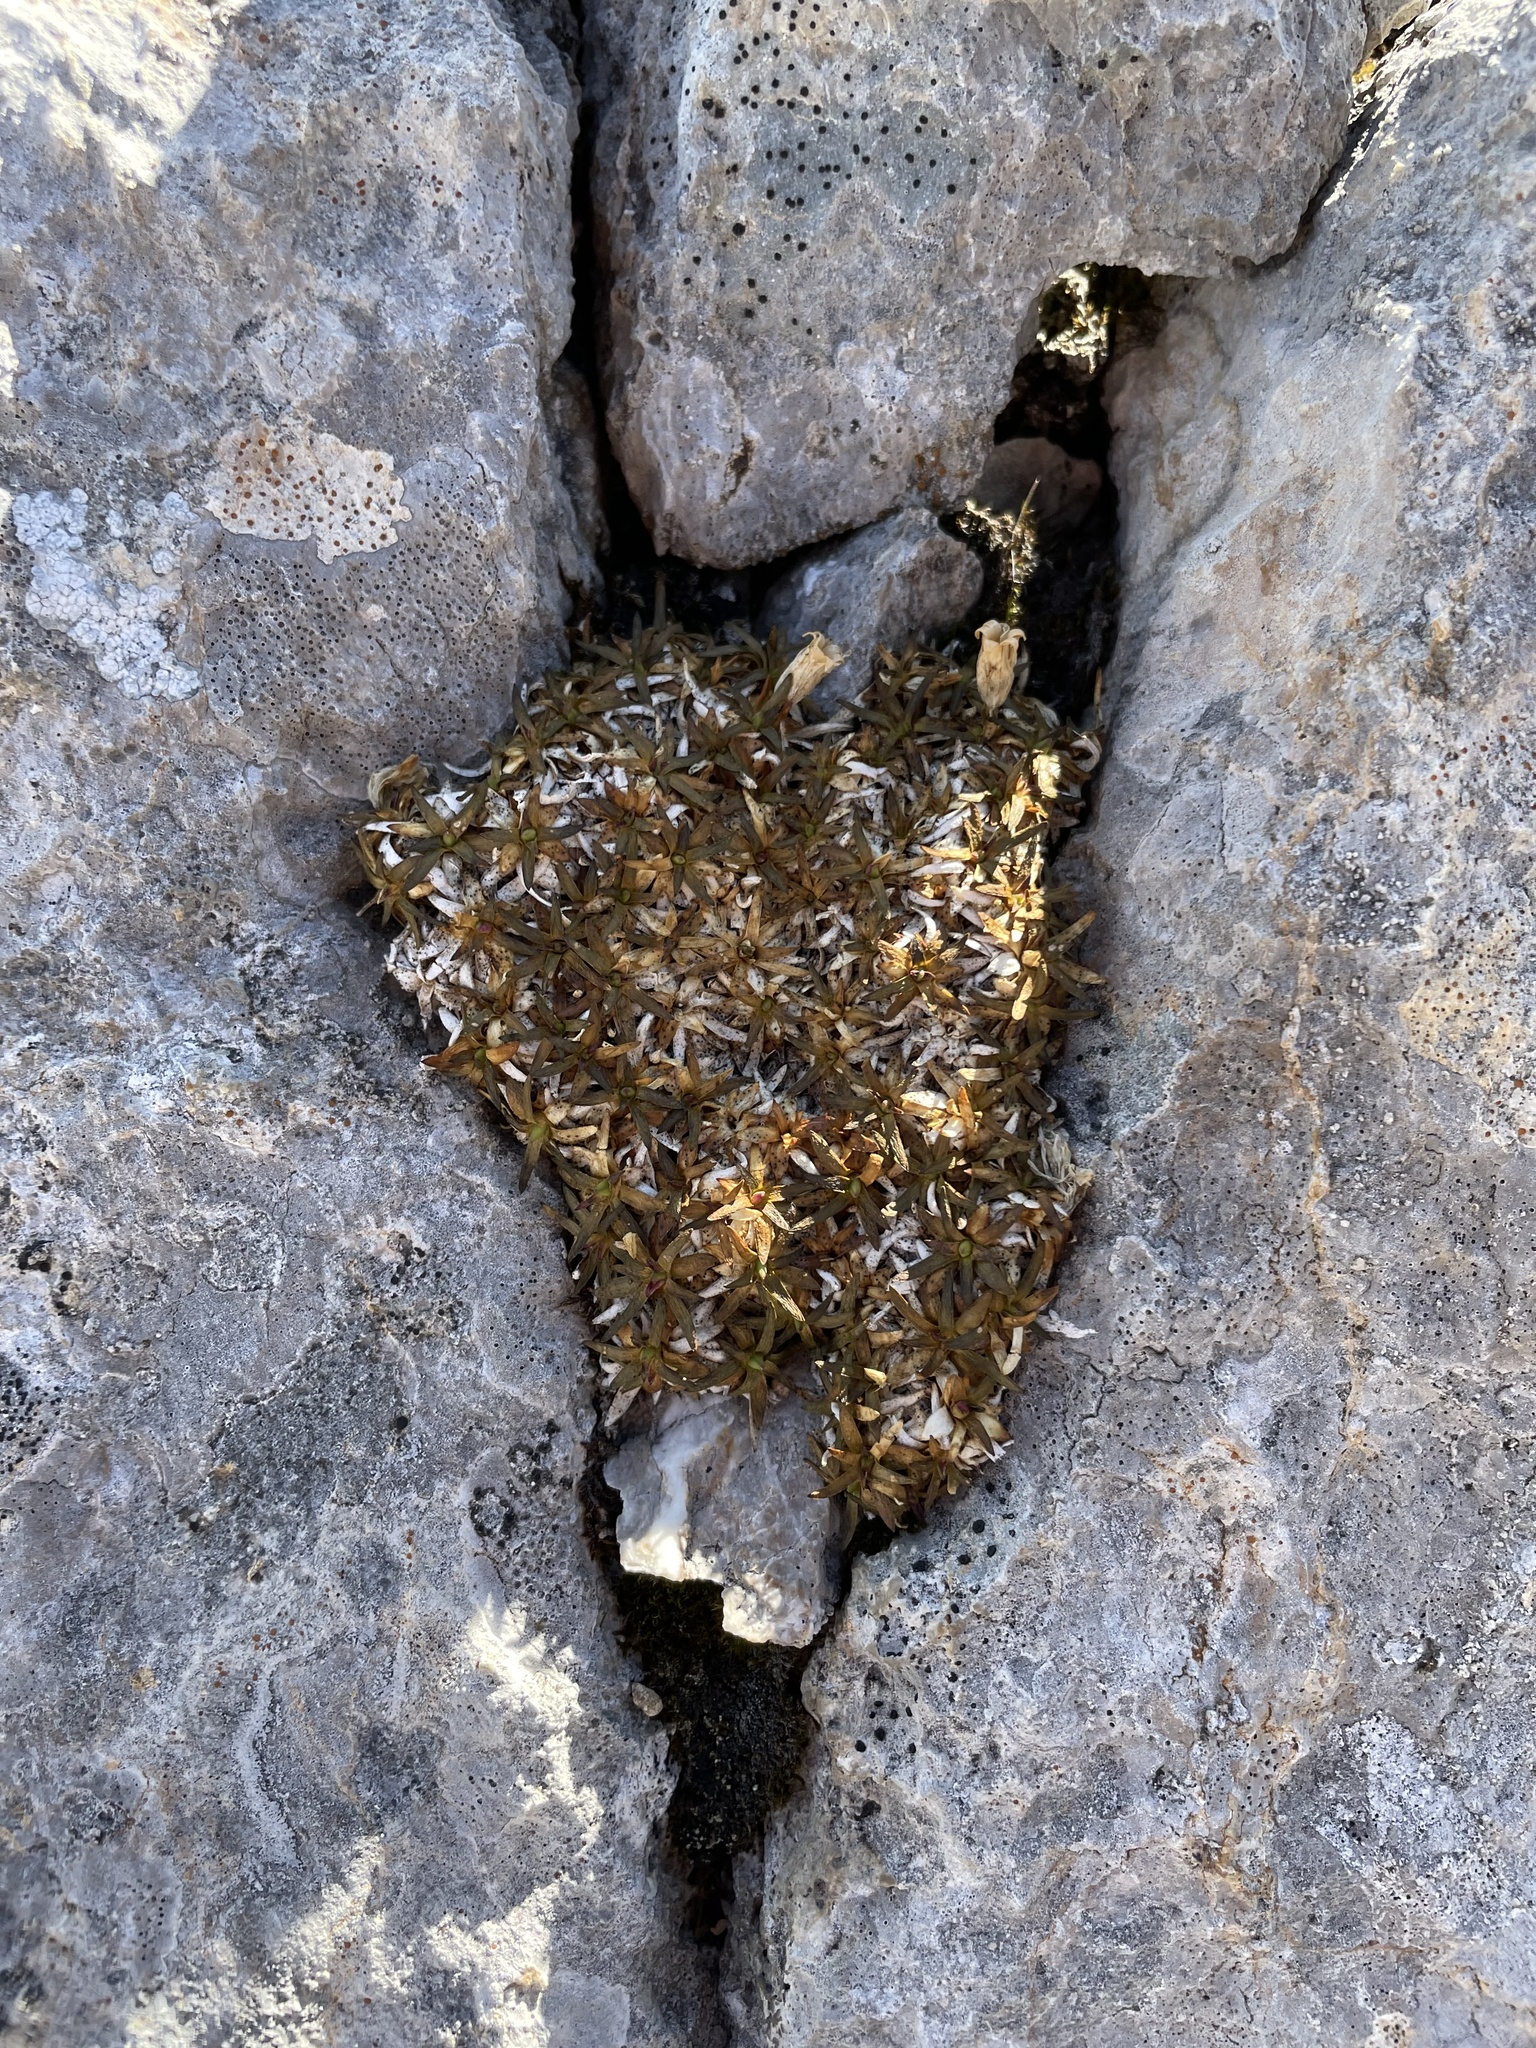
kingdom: Plantae
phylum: Tracheophyta
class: Magnoliopsida
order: Caryophyllales
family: Caryophyllaceae
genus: Silene
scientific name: Silene acaulis
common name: Moss campion
